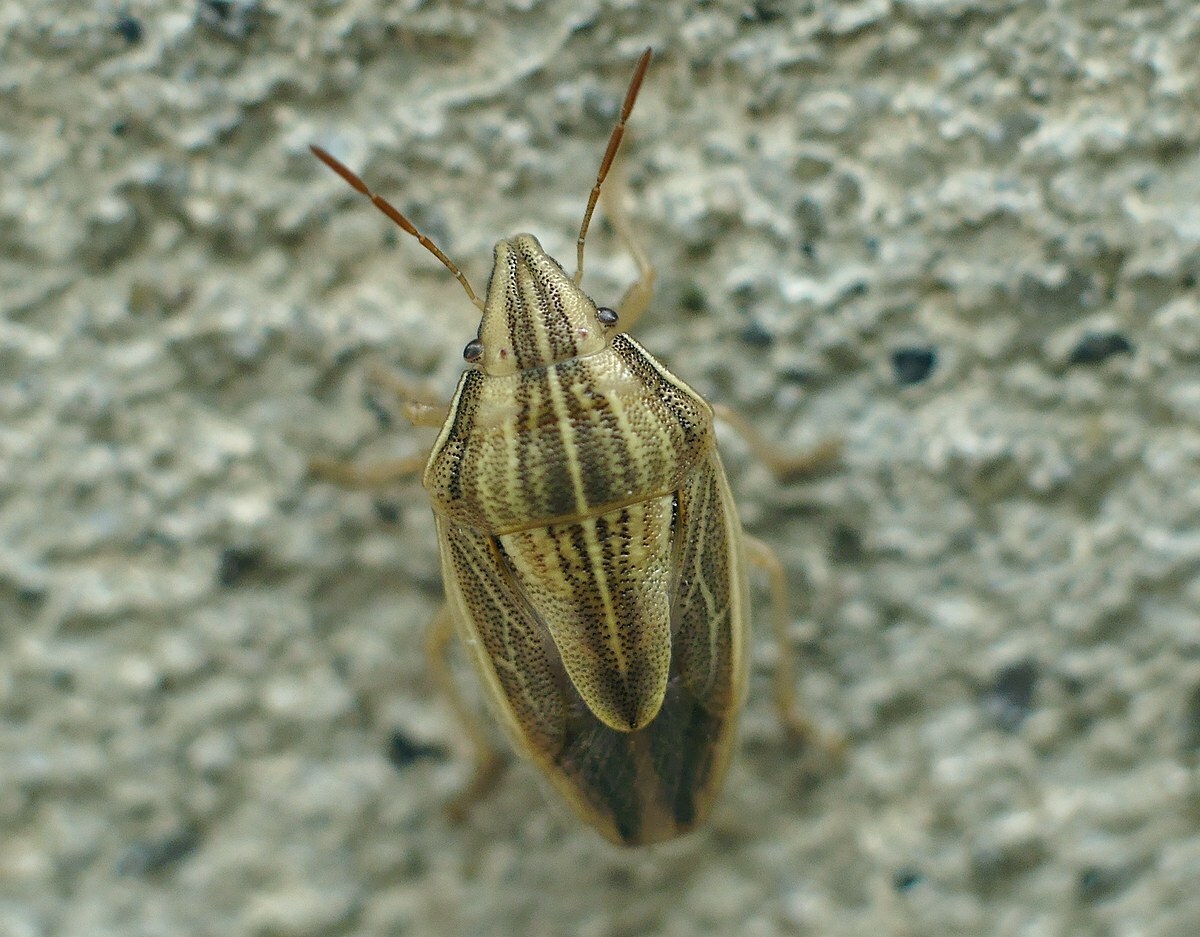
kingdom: Animalia
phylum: Arthropoda
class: Insecta
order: Hemiptera
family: Pentatomidae
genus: Aelia
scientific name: Aelia acuminata
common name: Bishop's mitre
